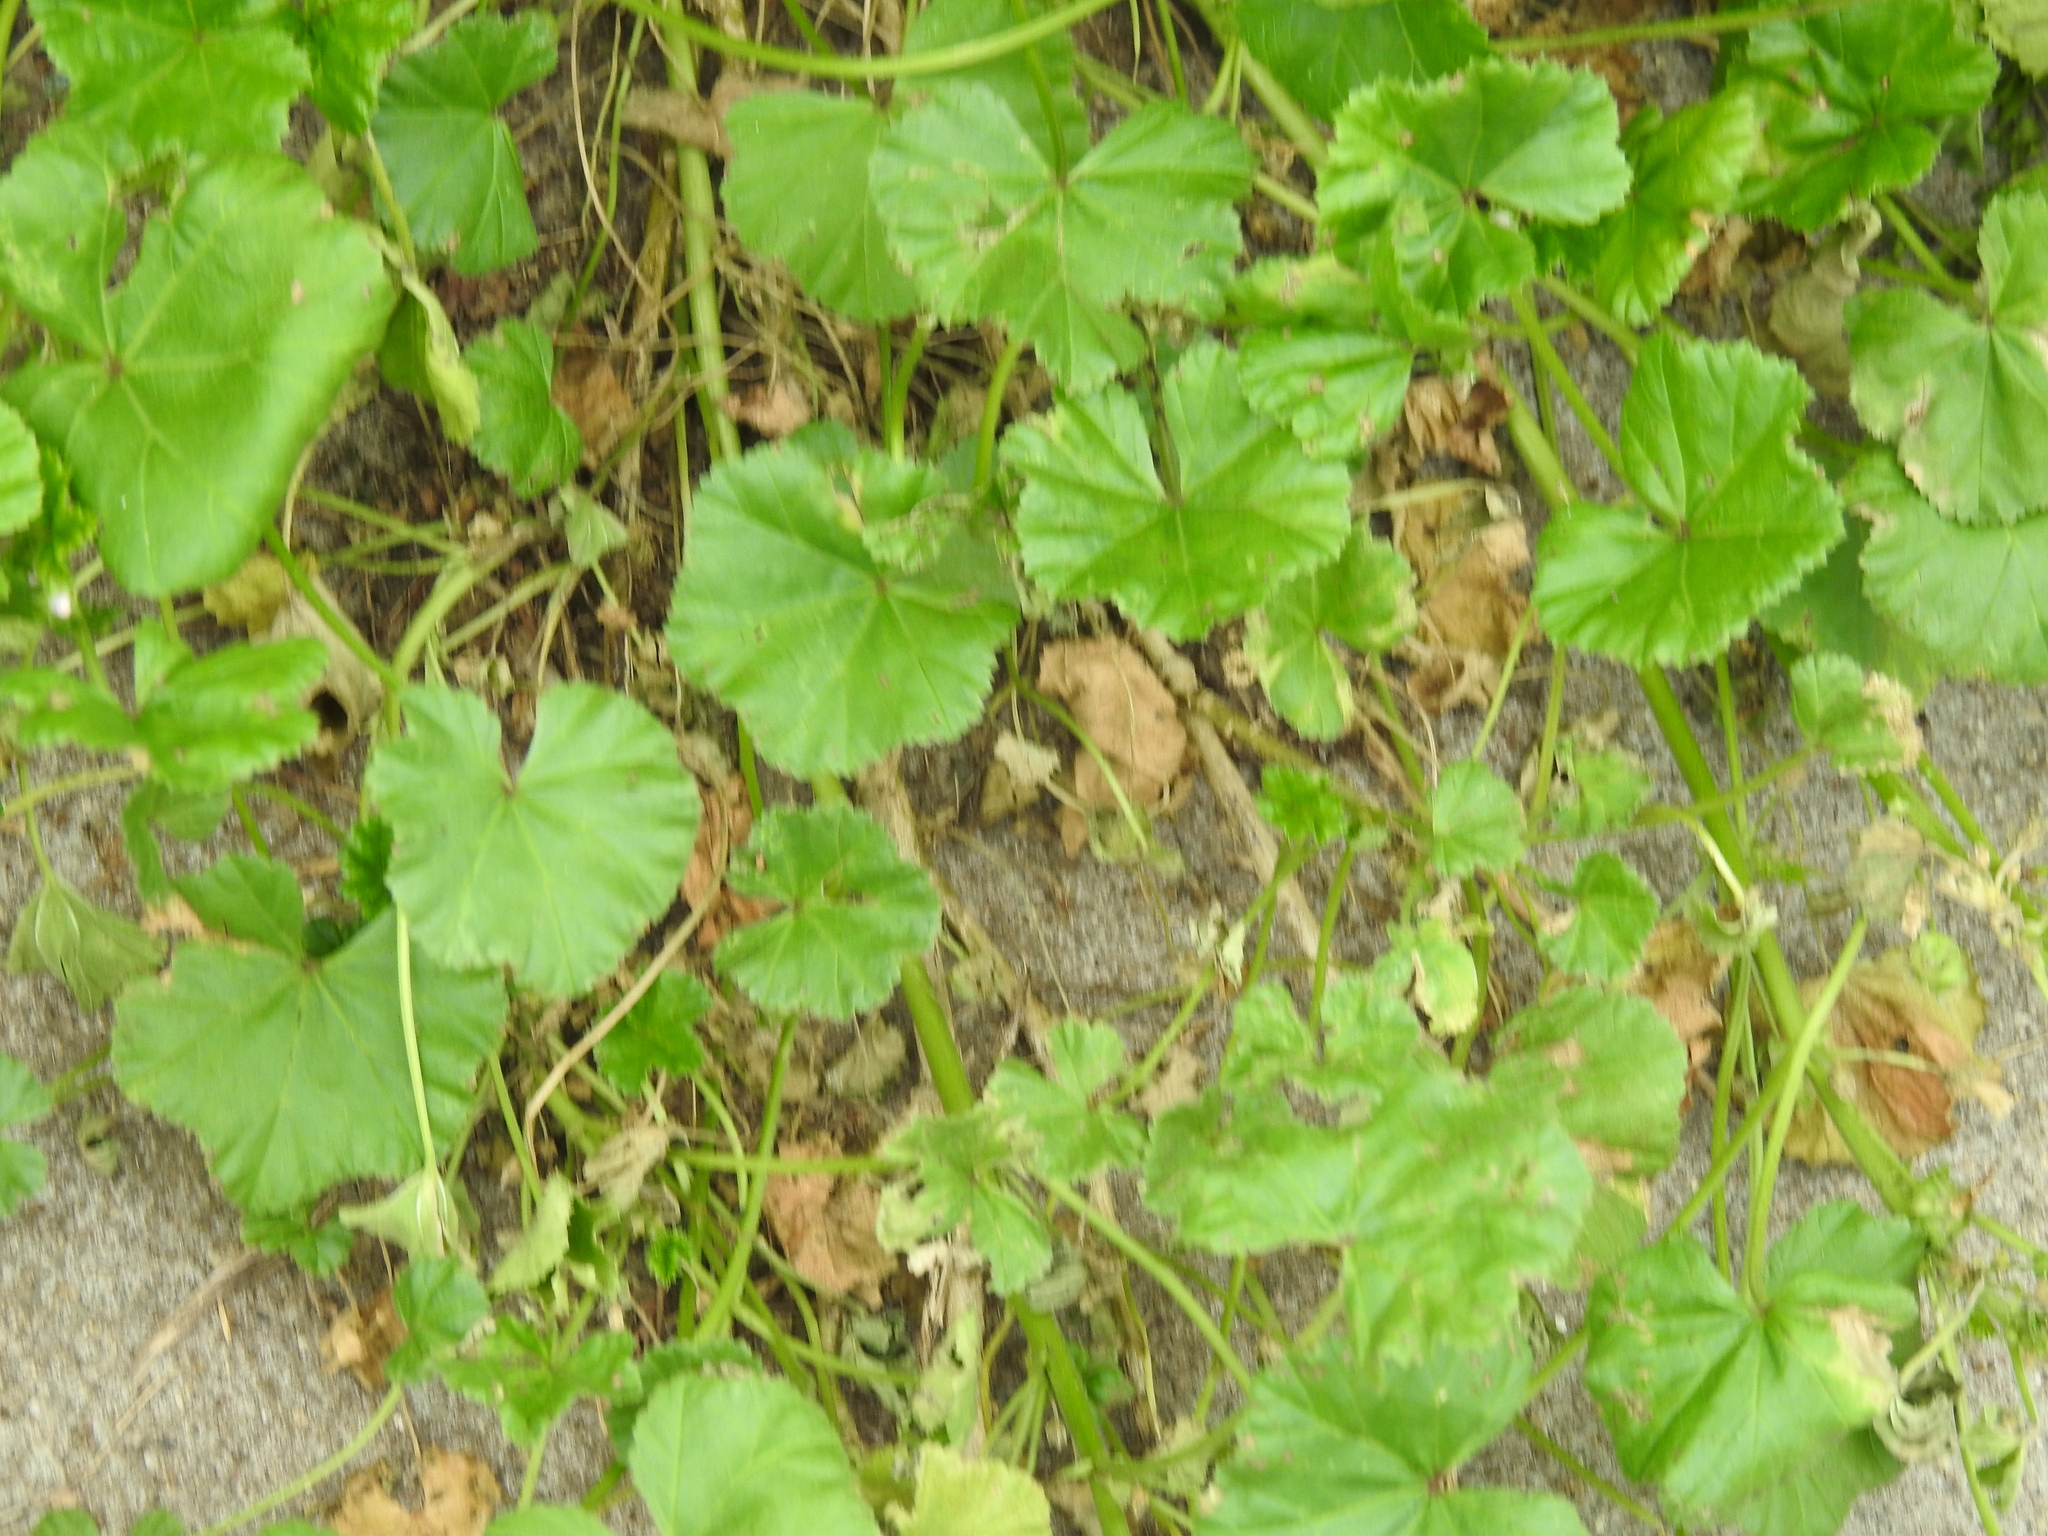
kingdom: Plantae
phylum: Tracheophyta
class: Magnoliopsida
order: Malvales
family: Malvaceae
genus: Malva
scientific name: Malva neglecta
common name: Common mallow
